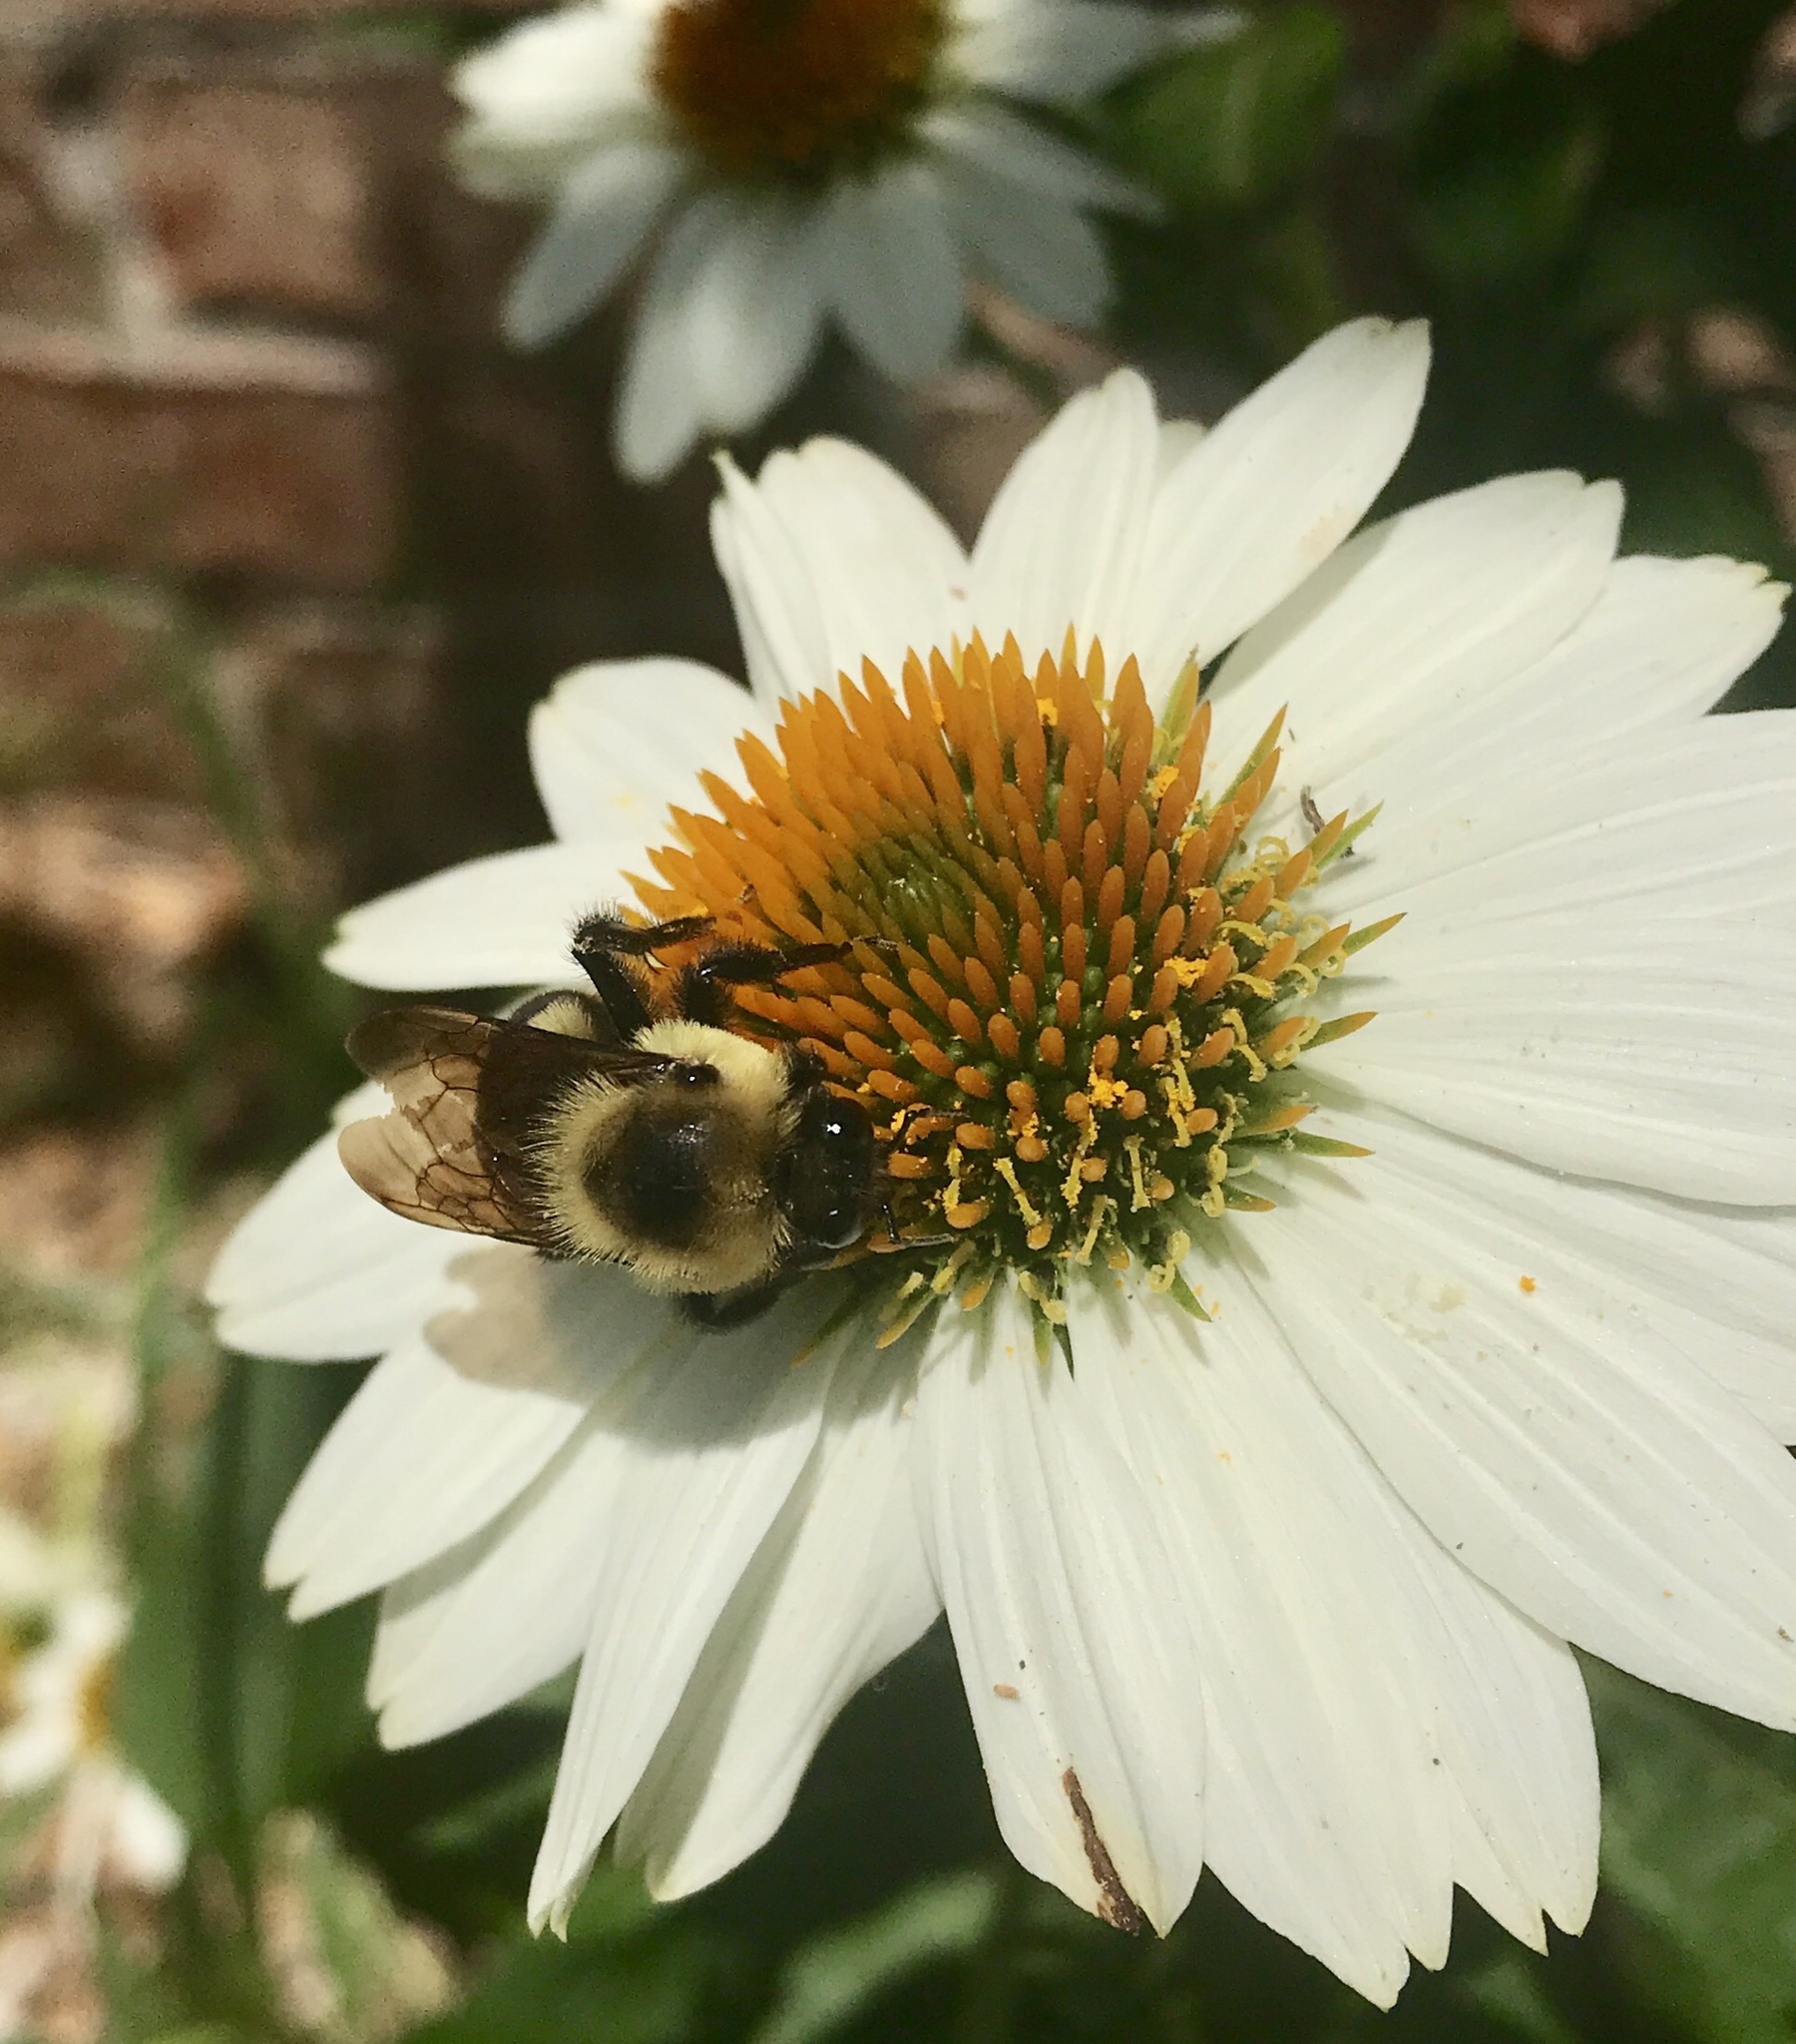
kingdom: Animalia
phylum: Arthropoda
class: Insecta
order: Hymenoptera
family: Apidae
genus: Bombus
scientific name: Bombus griseocollis
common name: Brown-belted bumble bee
